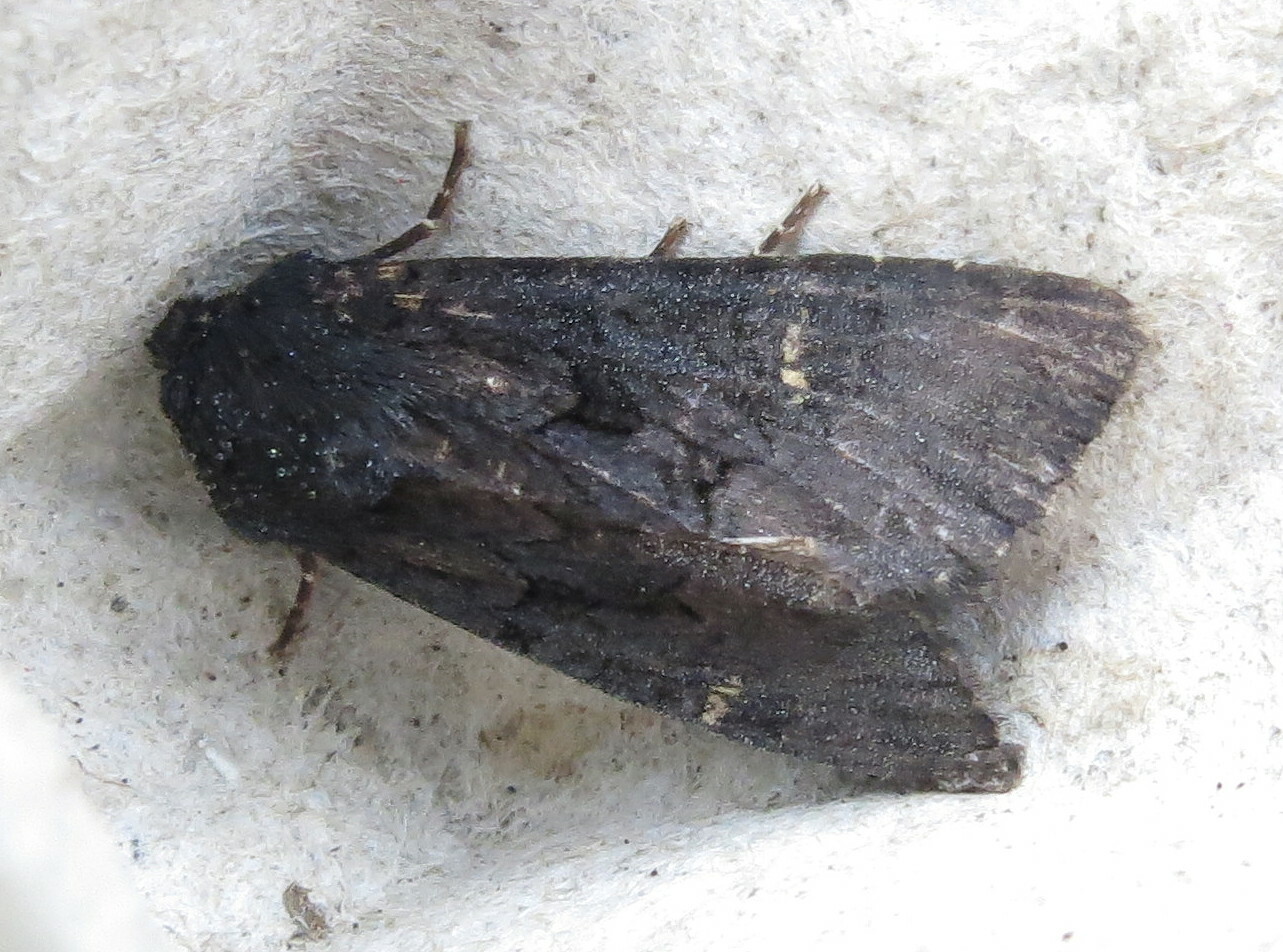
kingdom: Animalia
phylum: Arthropoda
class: Insecta
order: Lepidoptera
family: Noctuidae
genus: Aporophyla
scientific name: Aporophyla nigra
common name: Black rustic
